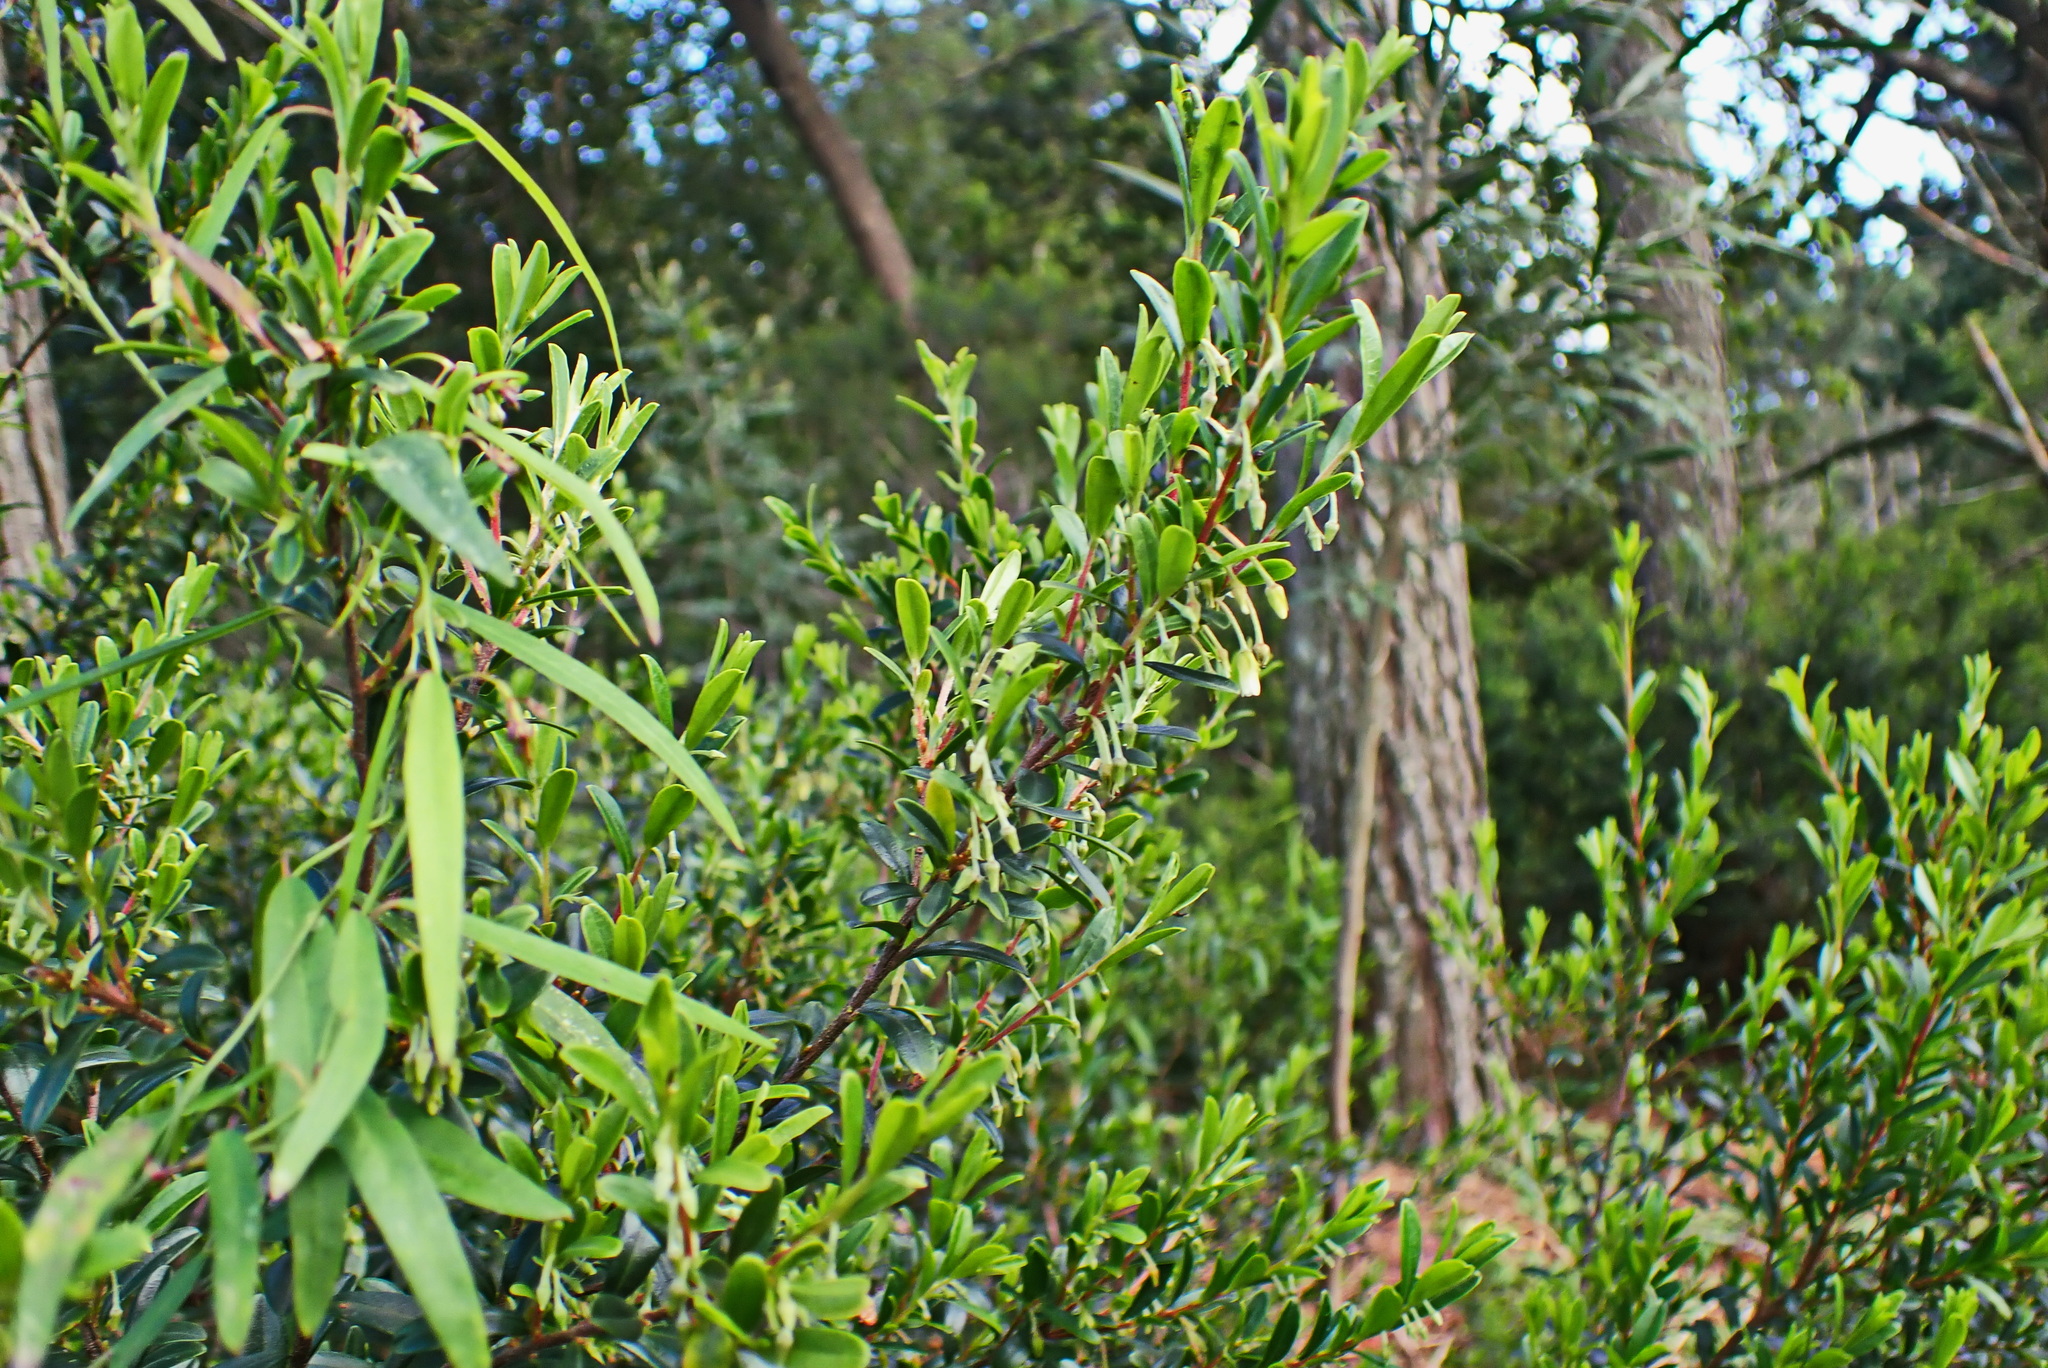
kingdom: Plantae
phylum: Tracheophyta
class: Magnoliopsida
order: Ericales
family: Ebenaceae
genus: Diospyros
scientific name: Diospyros glabra
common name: Fynbos star apple
